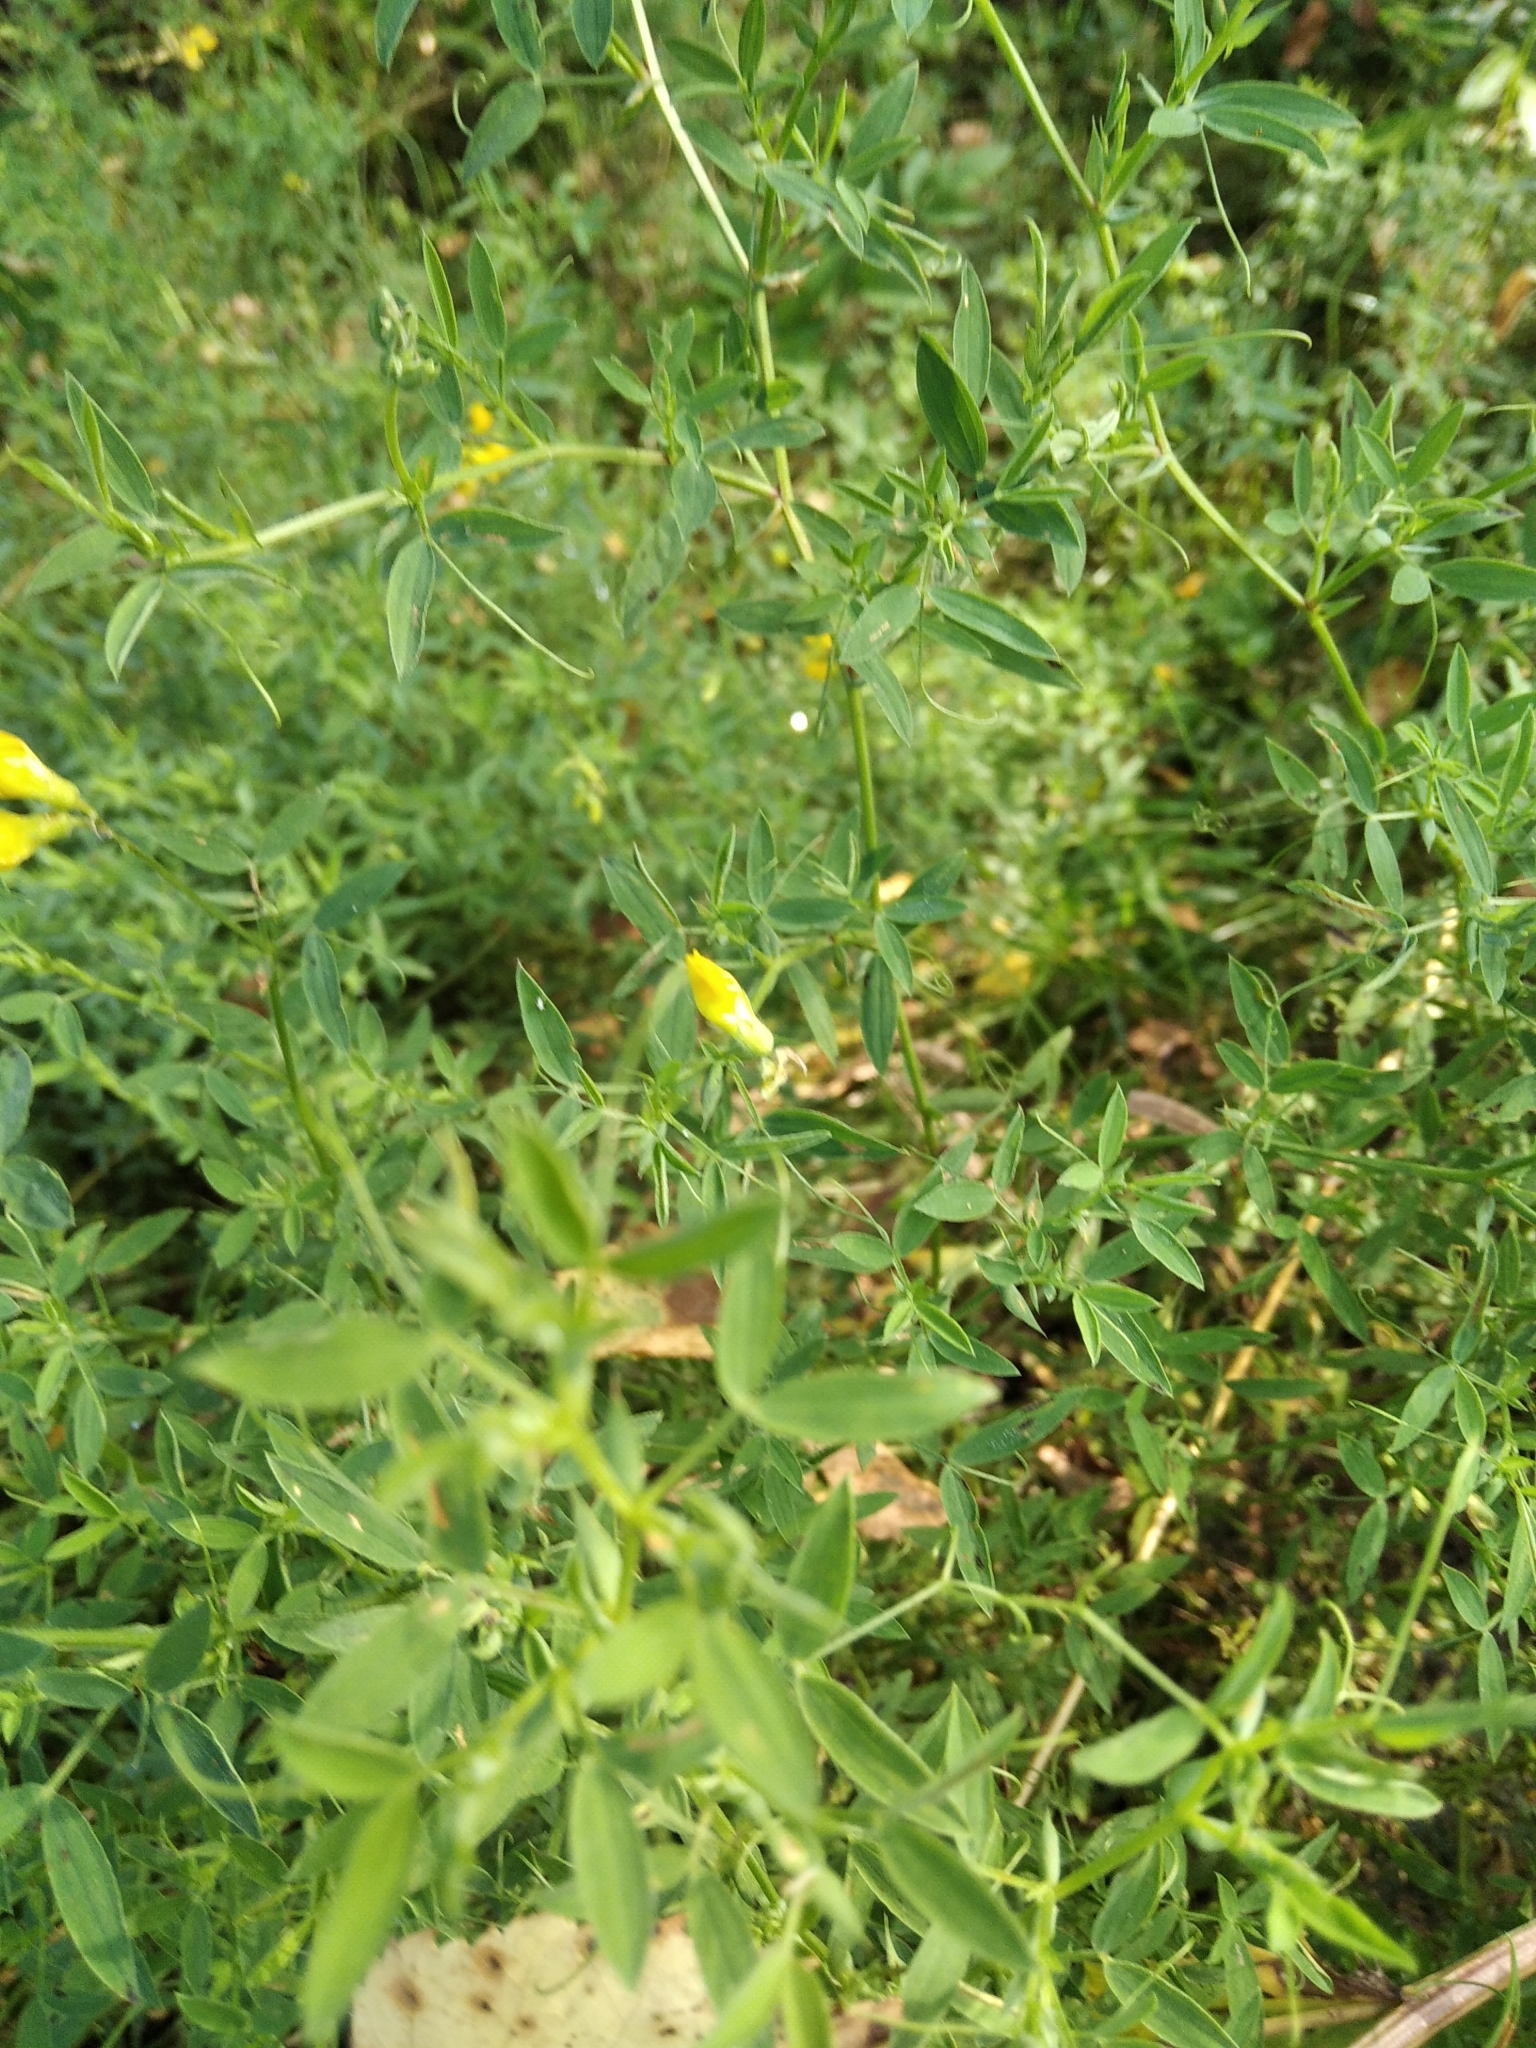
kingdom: Plantae
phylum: Tracheophyta
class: Magnoliopsida
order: Fabales
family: Fabaceae
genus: Lathyrus
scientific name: Lathyrus pratensis
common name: Meadow vetchling
